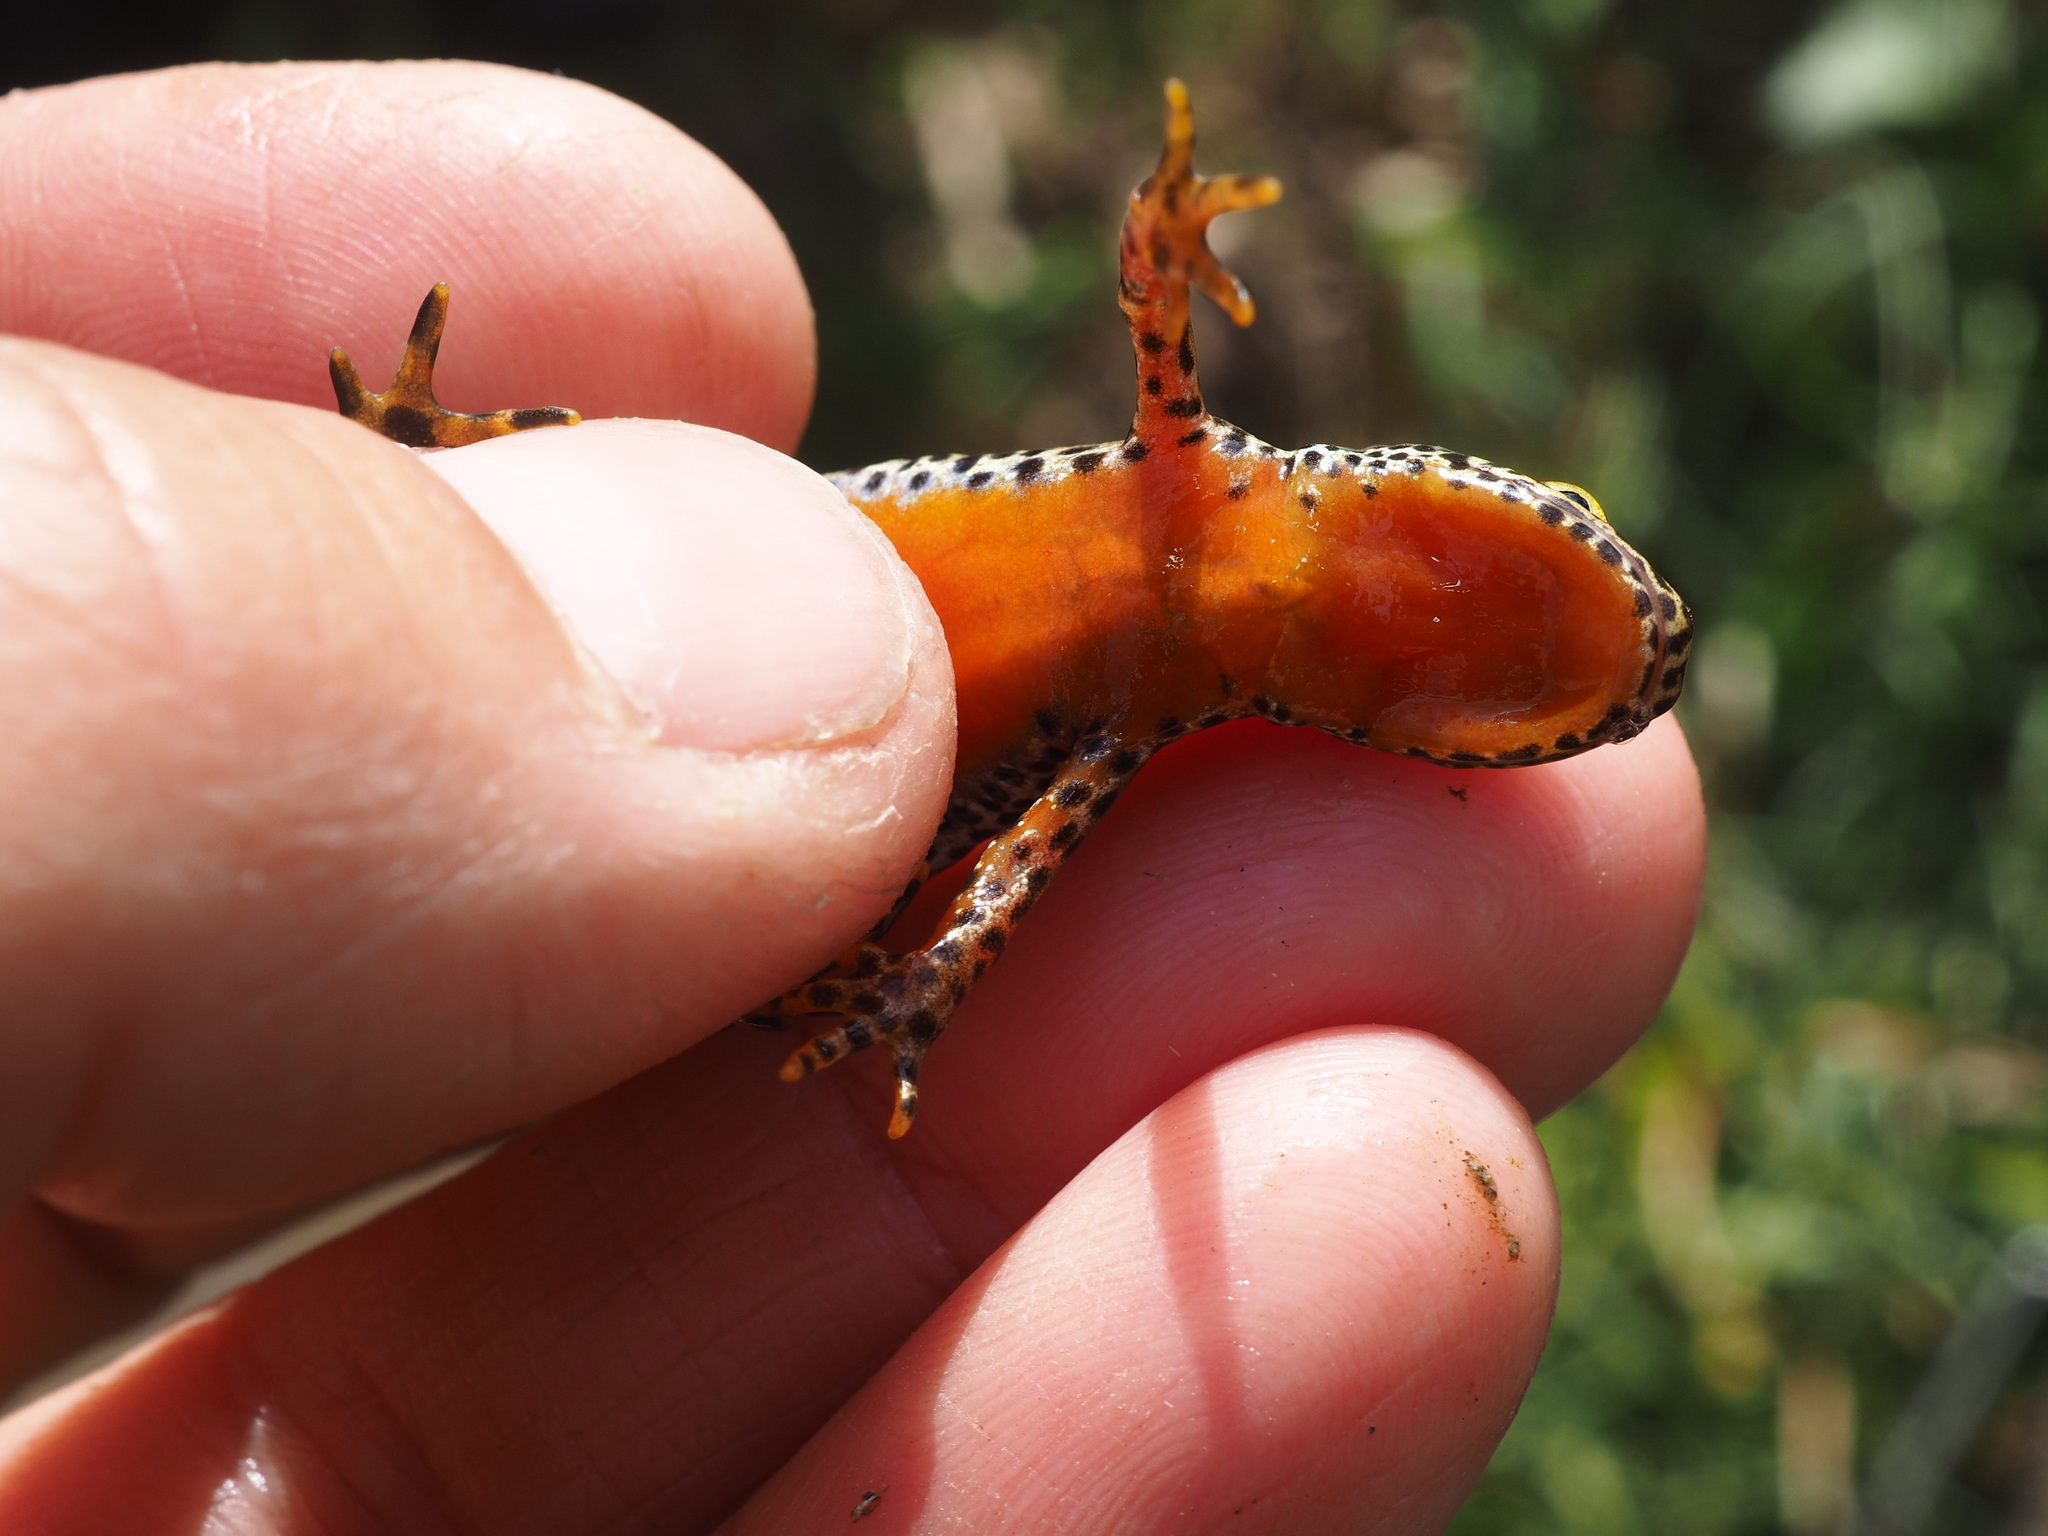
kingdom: Animalia
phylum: Chordata
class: Amphibia
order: Caudata
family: Salamandridae
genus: Ichthyosaura
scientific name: Ichthyosaura alpestris
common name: Alpine newt
